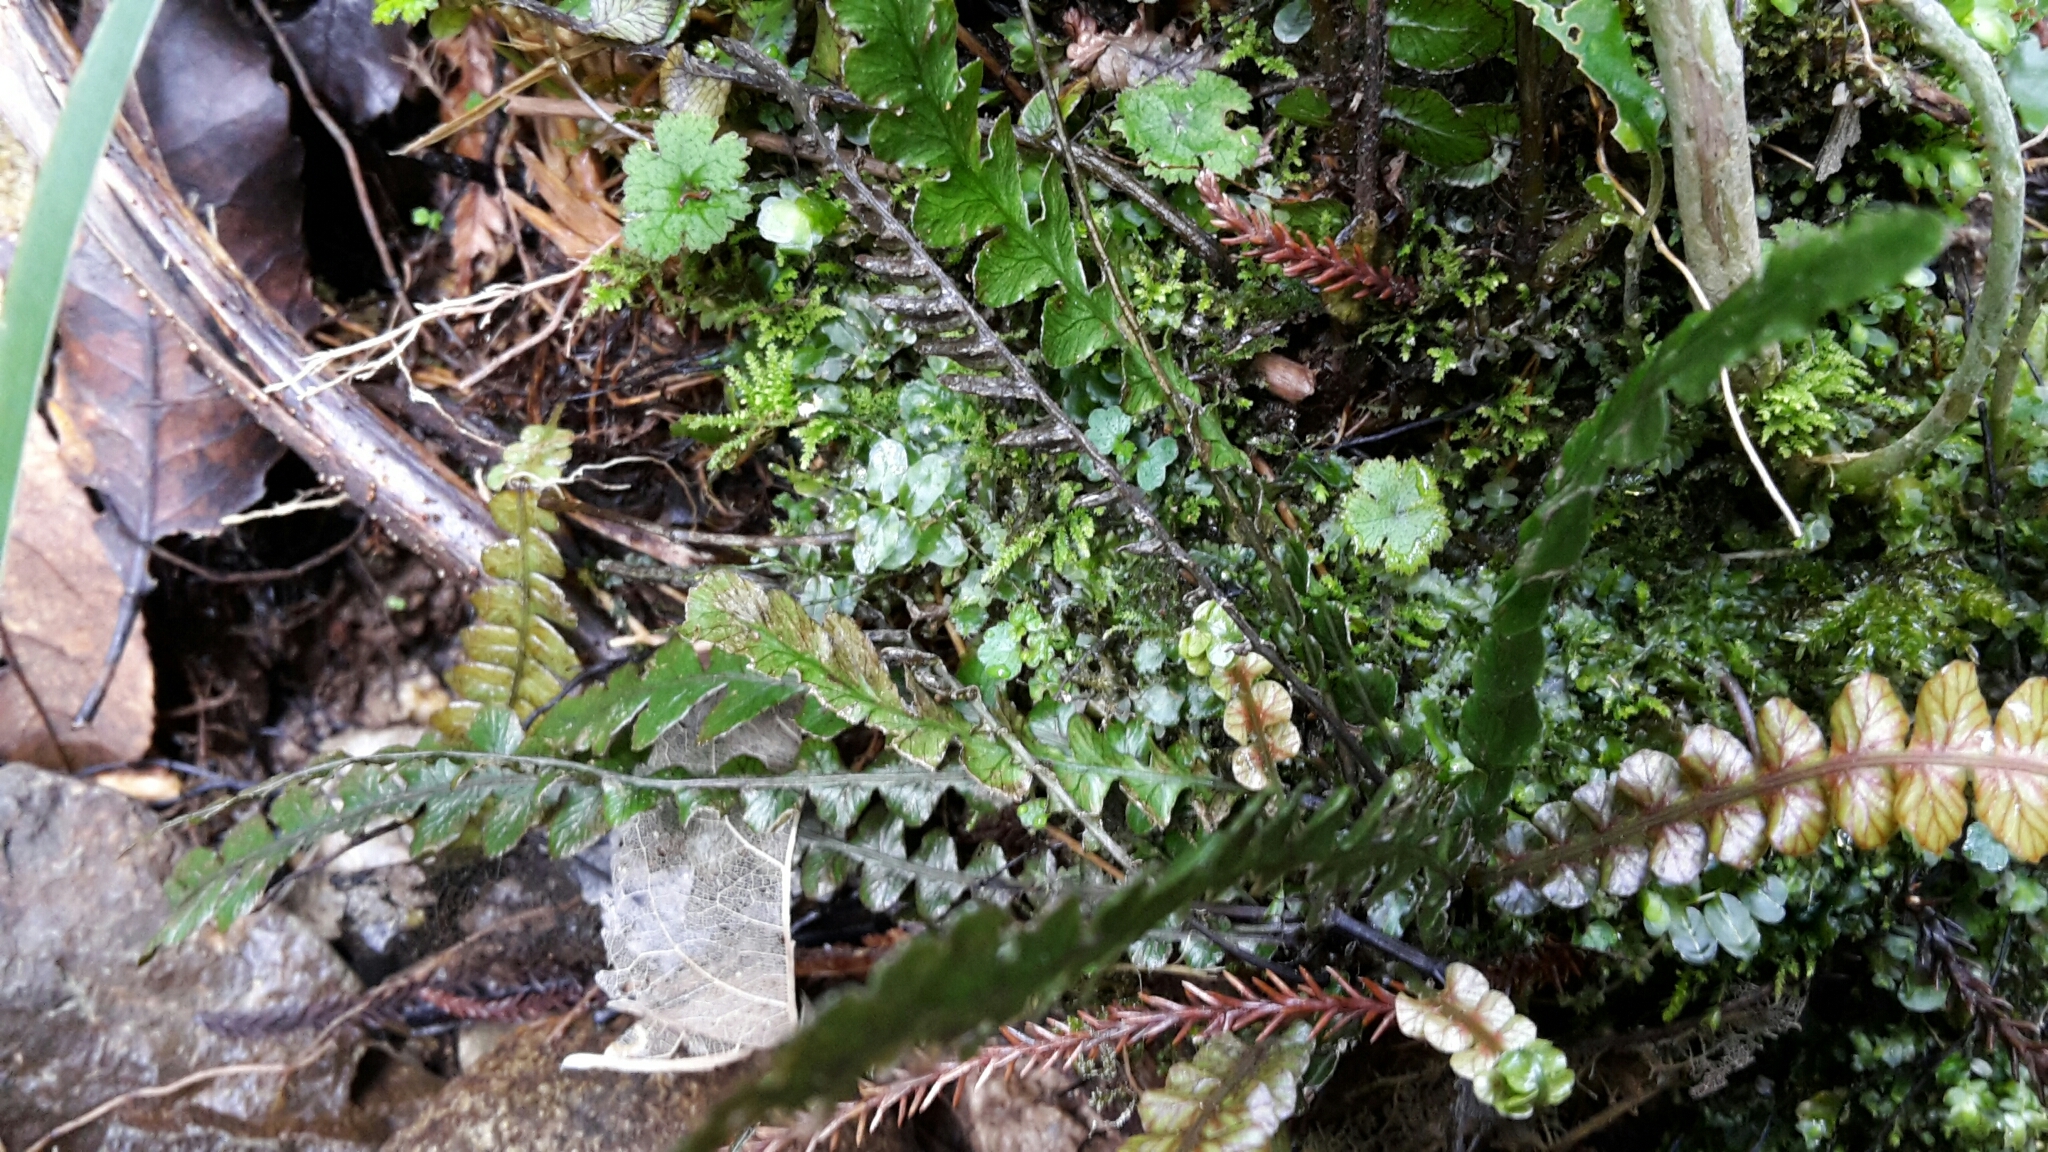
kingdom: Plantae
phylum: Tracheophyta
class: Polypodiopsida
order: Polypodiales
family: Blechnaceae
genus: Austroblechnum
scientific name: Austroblechnum membranaceum
